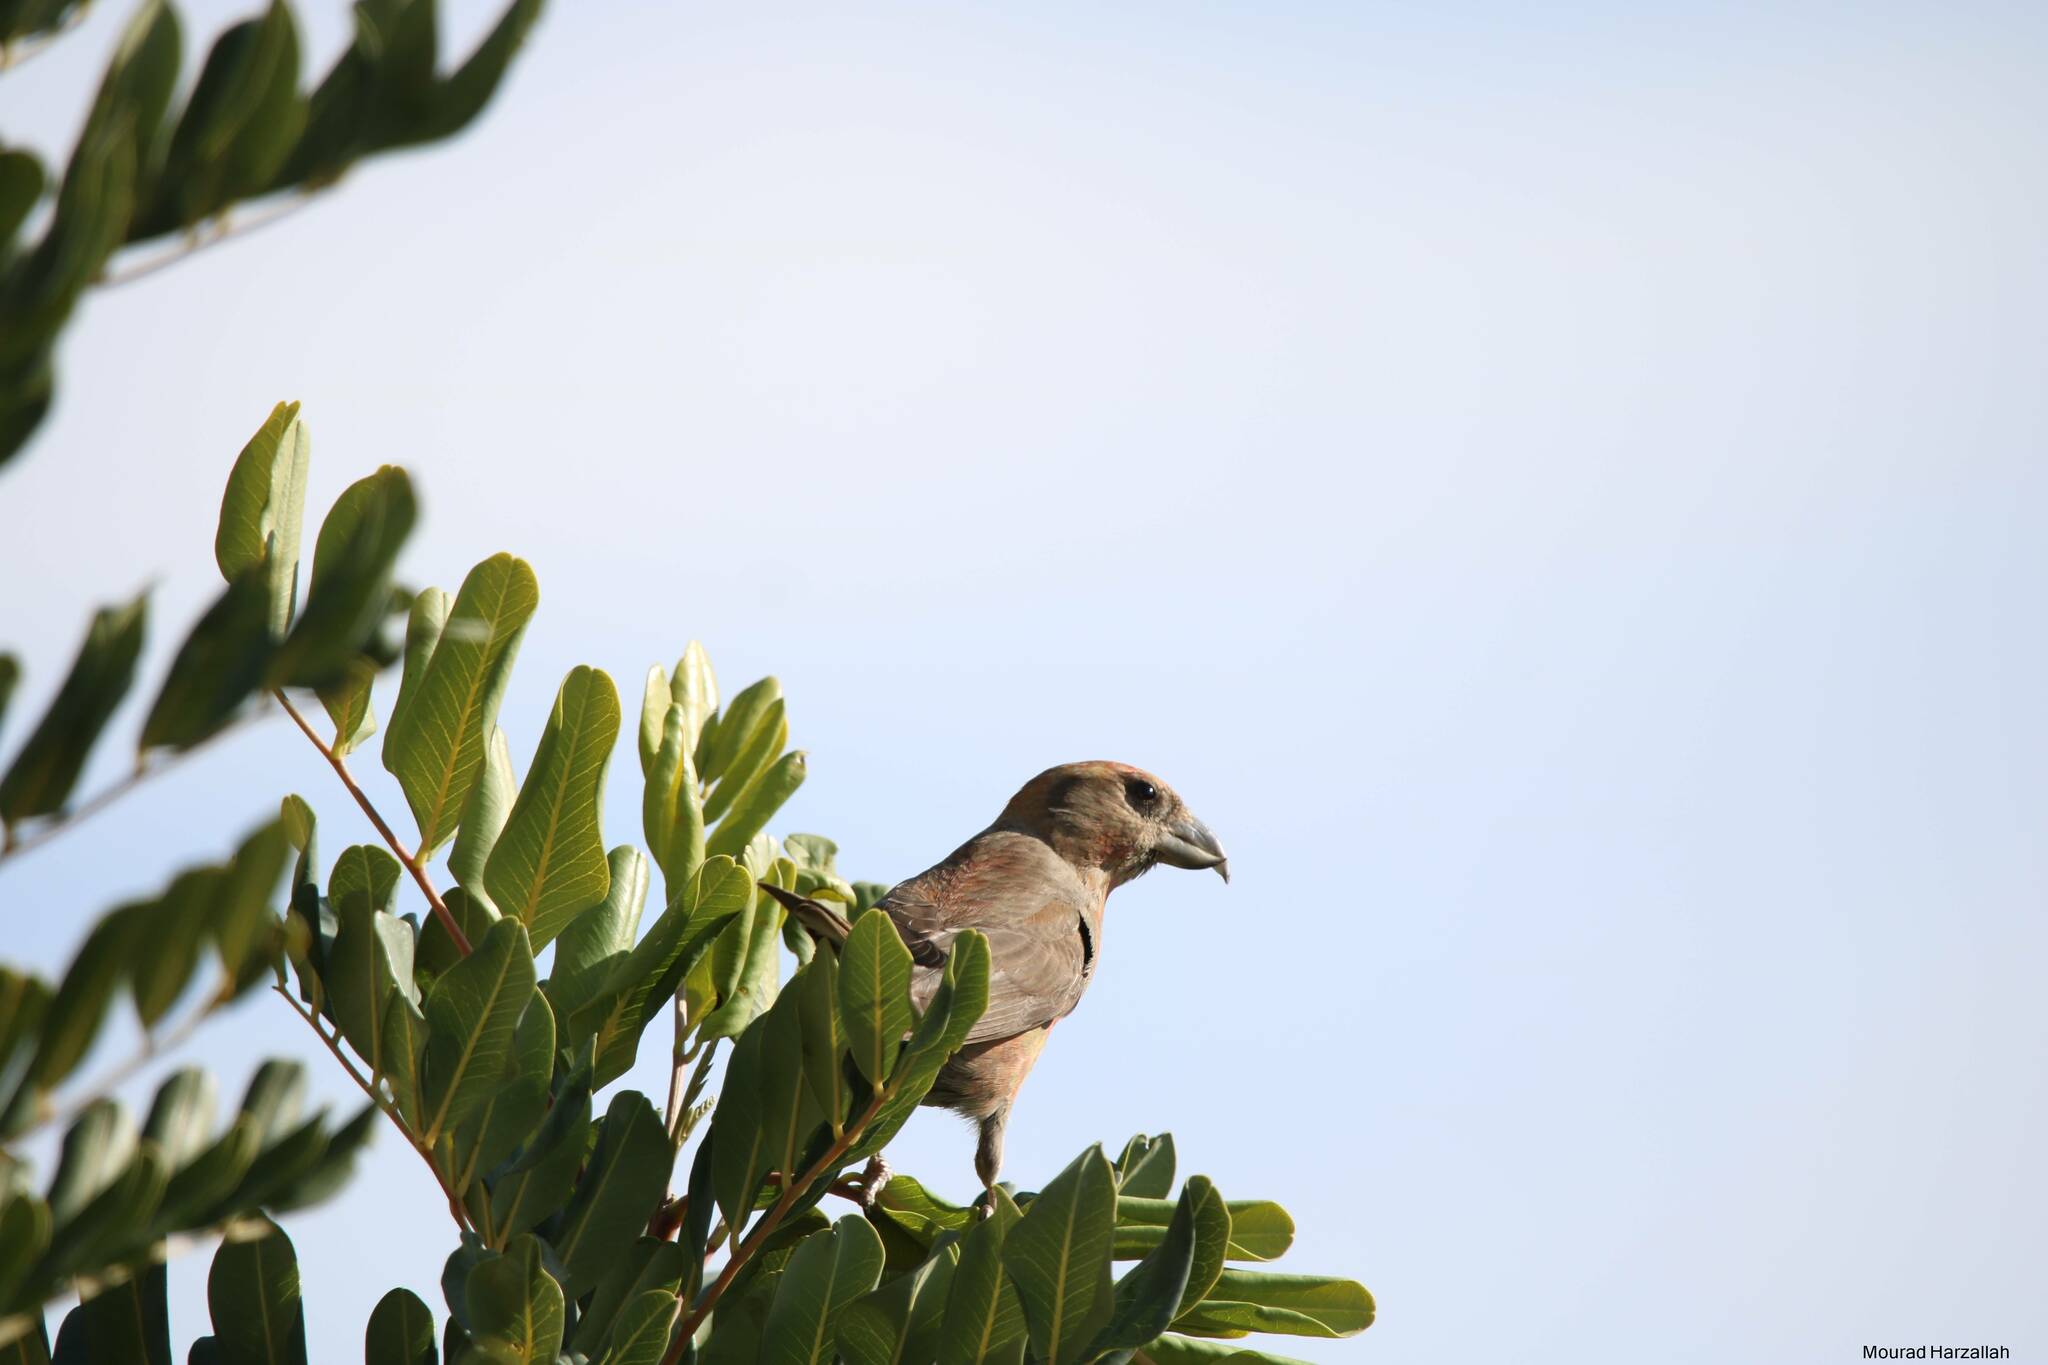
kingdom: Animalia
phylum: Chordata
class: Aves
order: Passeriformes
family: Fringillidae
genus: Loxia
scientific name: Loxia curvirostra
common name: Red crossbill
